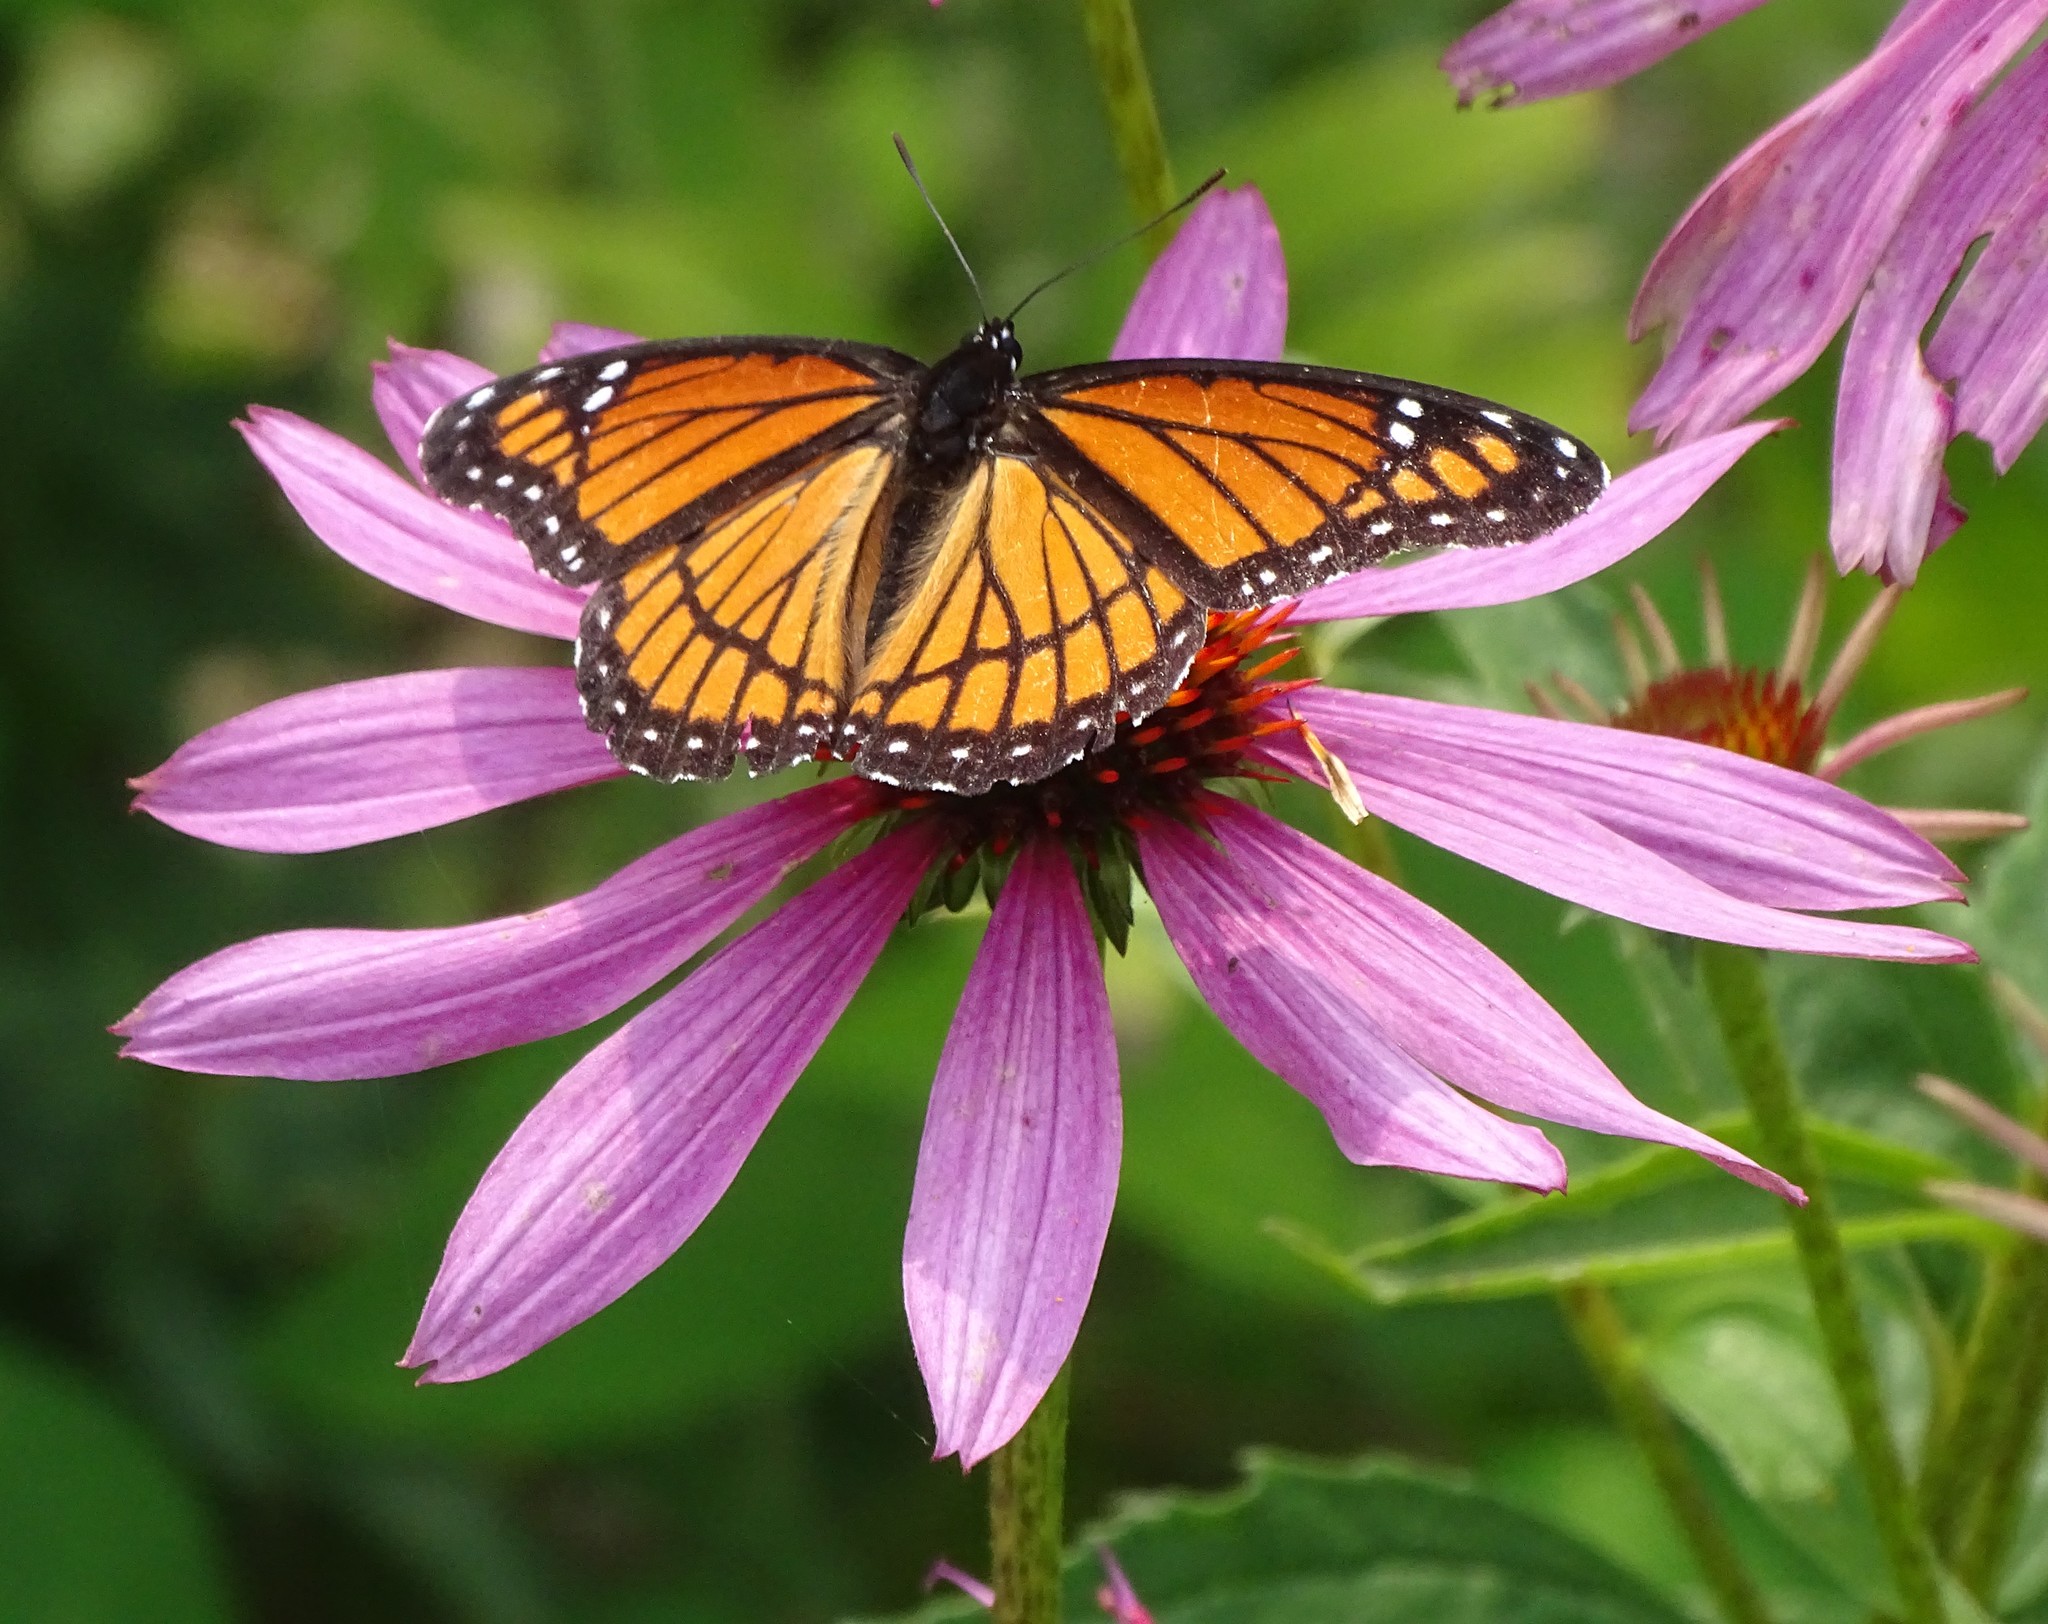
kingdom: Animalia
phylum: Arthropoda
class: Insecta
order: Lepidoptera
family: Nymphalidae
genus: Limenitis
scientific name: Limenitis archippus
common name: Viceroy
